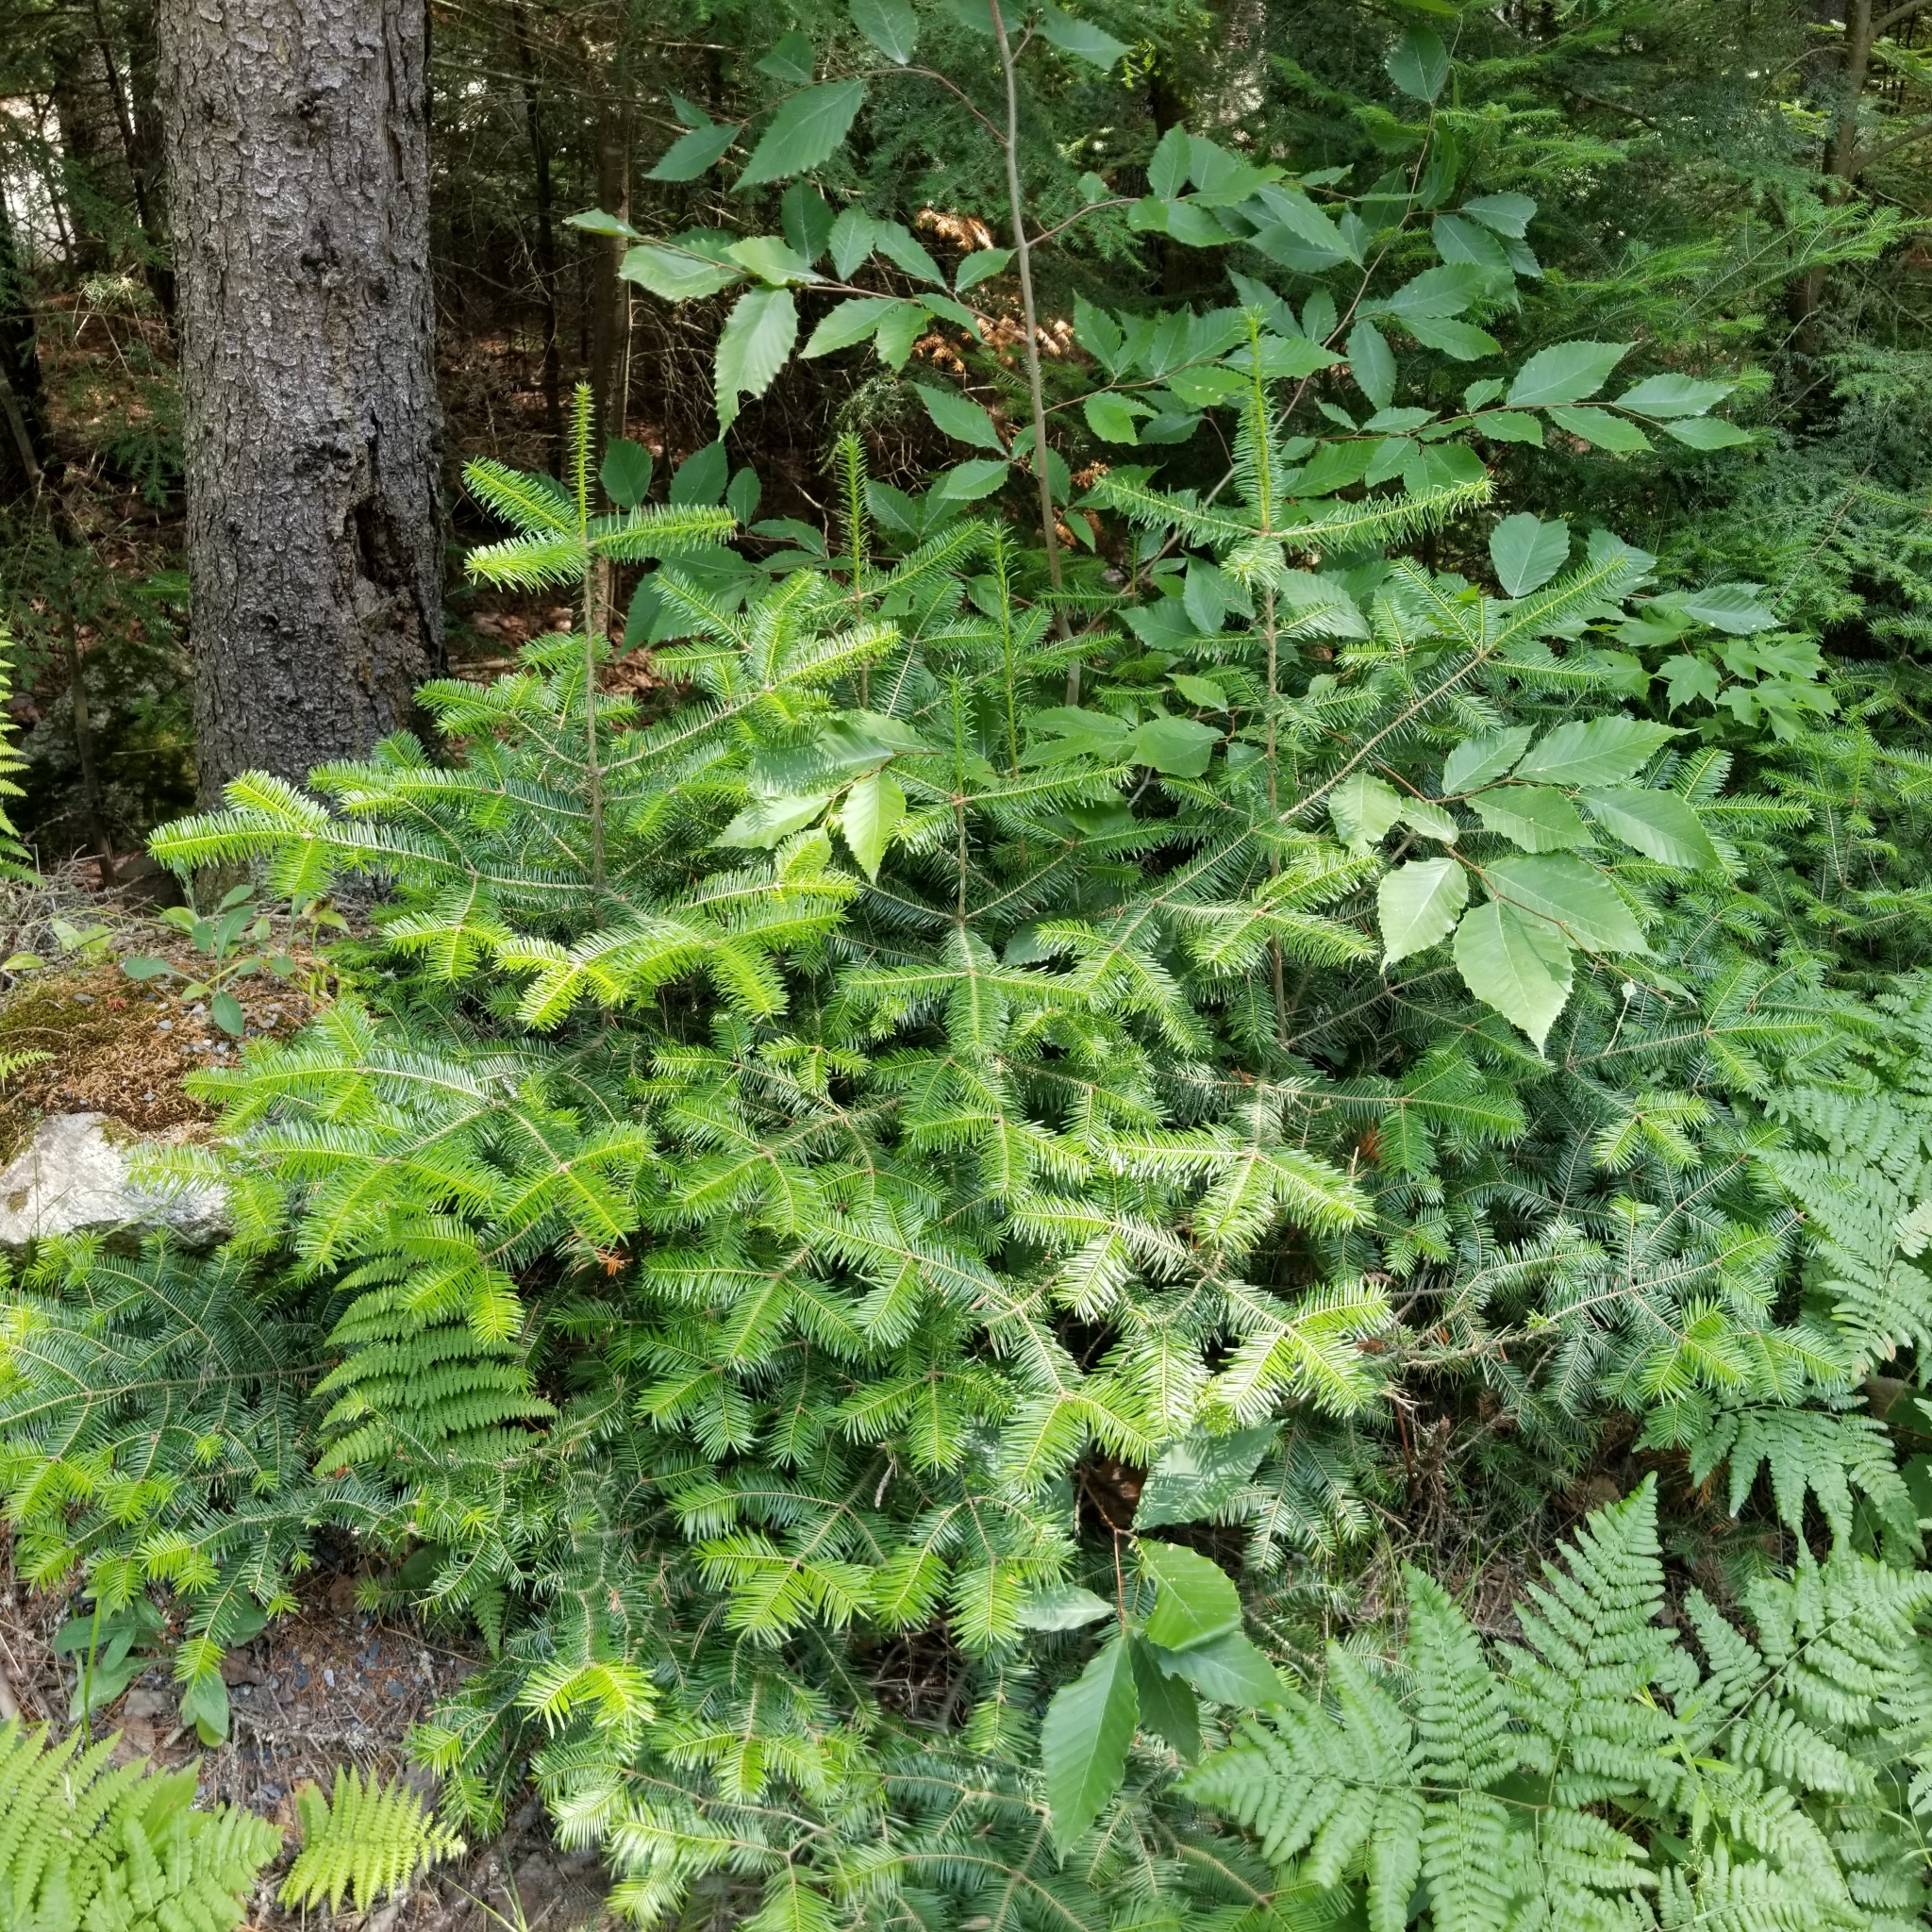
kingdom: Plantae
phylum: Tracheophyta
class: Pinopsida
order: Pinales
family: Pinaceae
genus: Abies
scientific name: Abies balsamea
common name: Balsam fir
